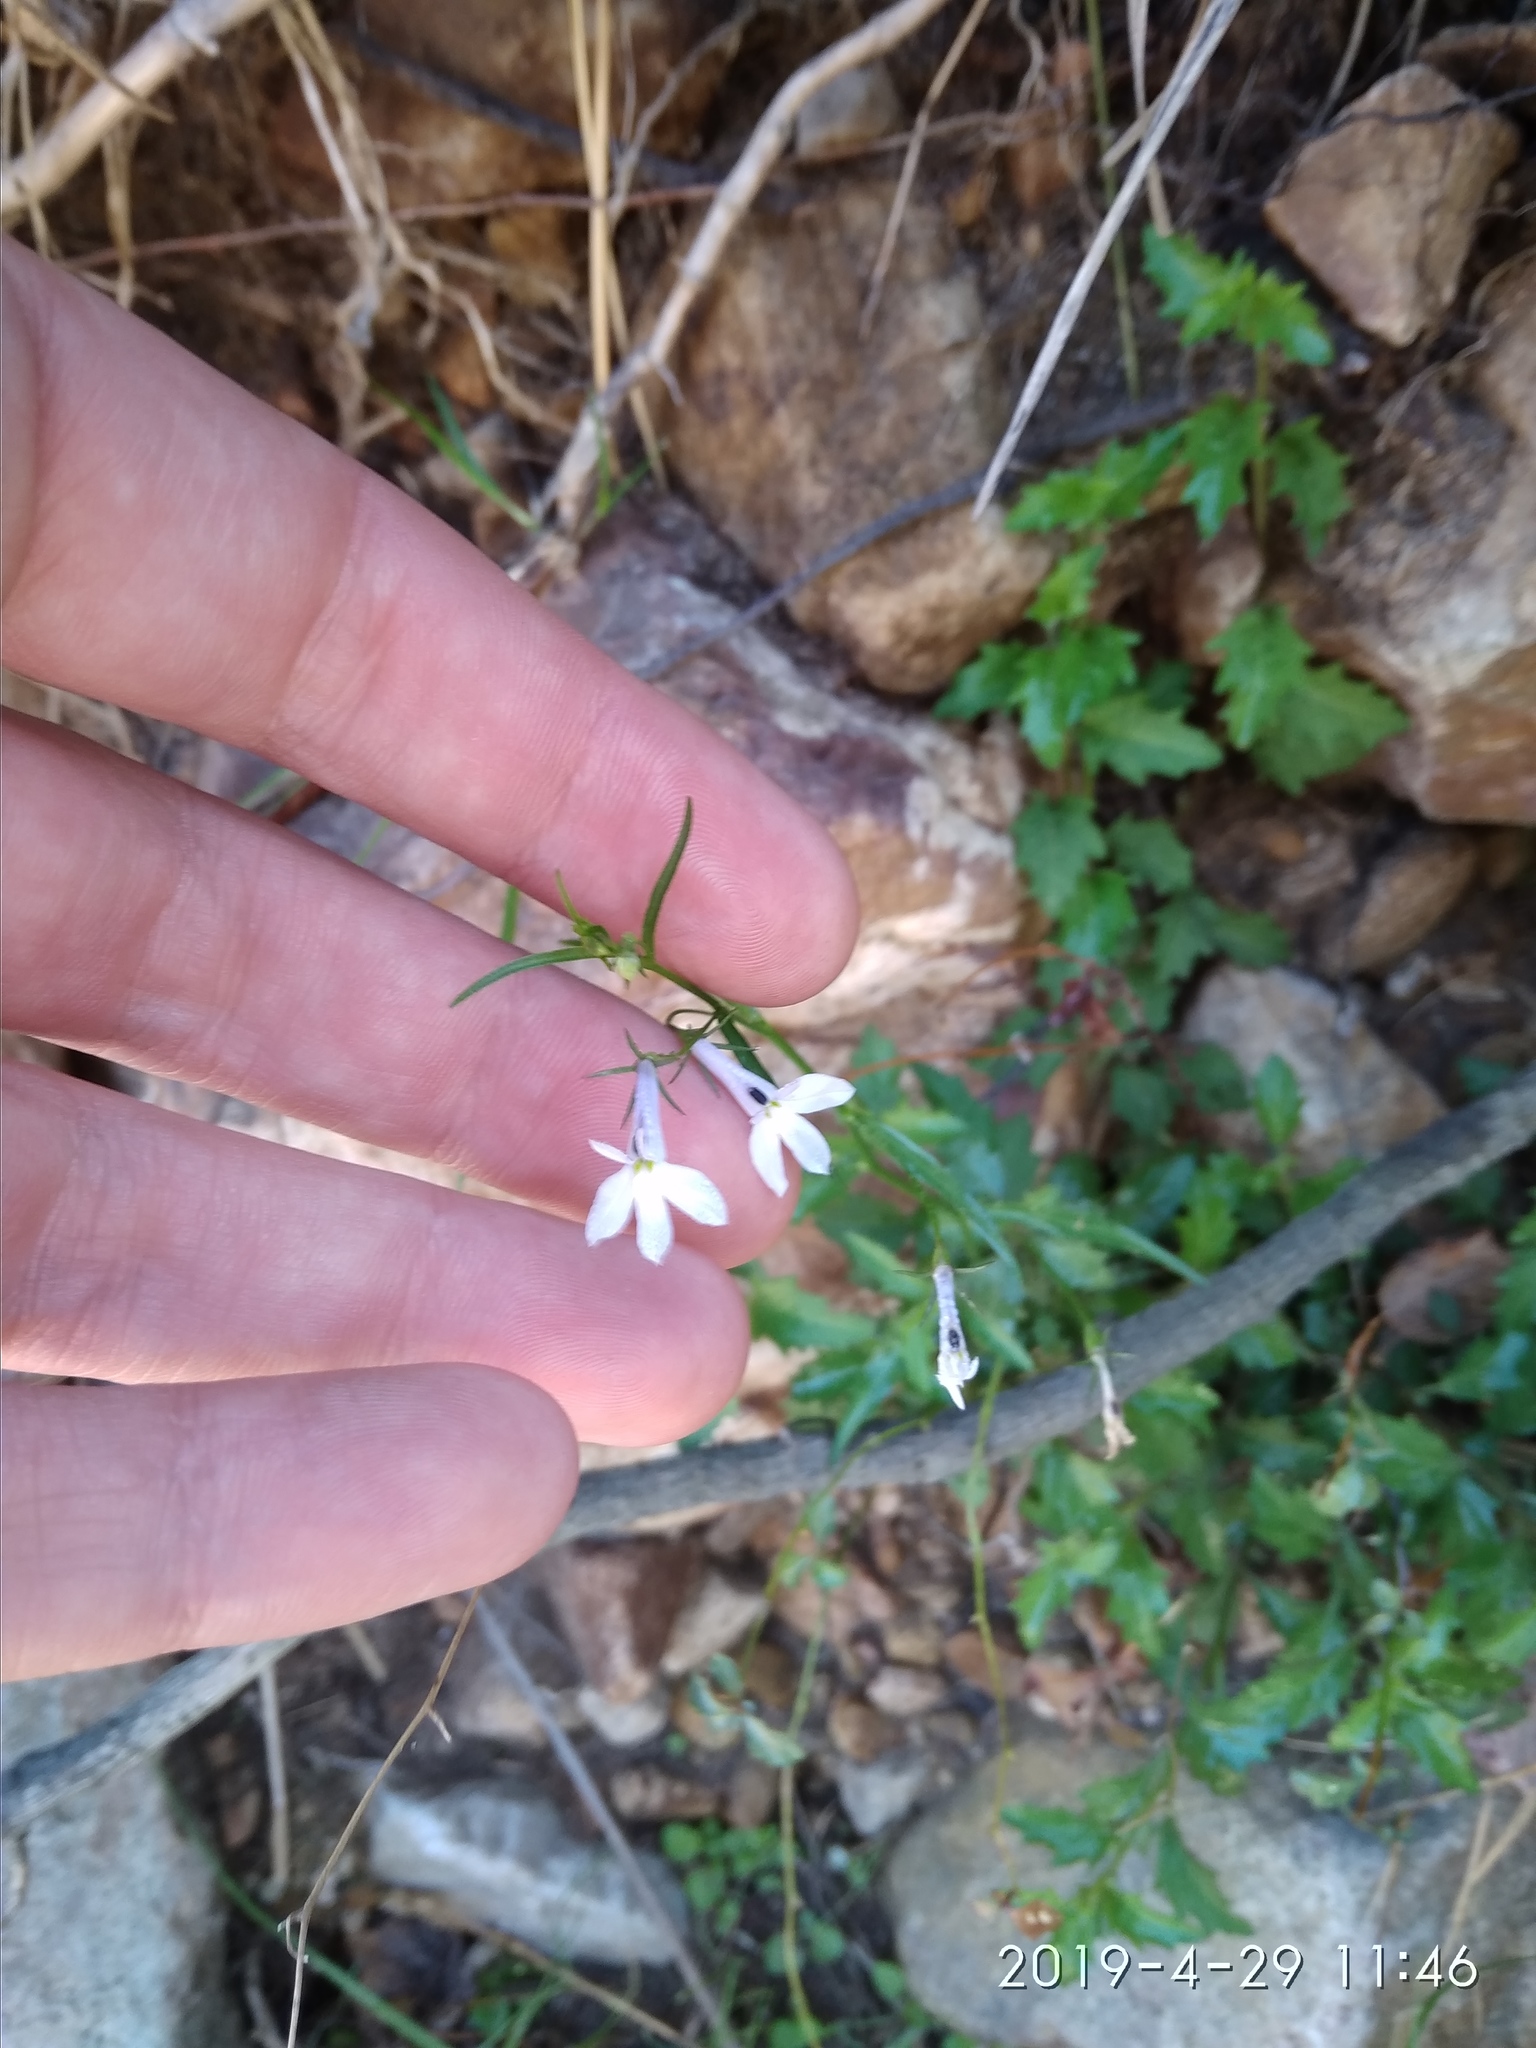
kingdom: Plantae
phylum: Tracheophyta
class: Magnoliopsida
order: Asterales
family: Campanulaceae
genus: Lobelia
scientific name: Lobelia pubescens
